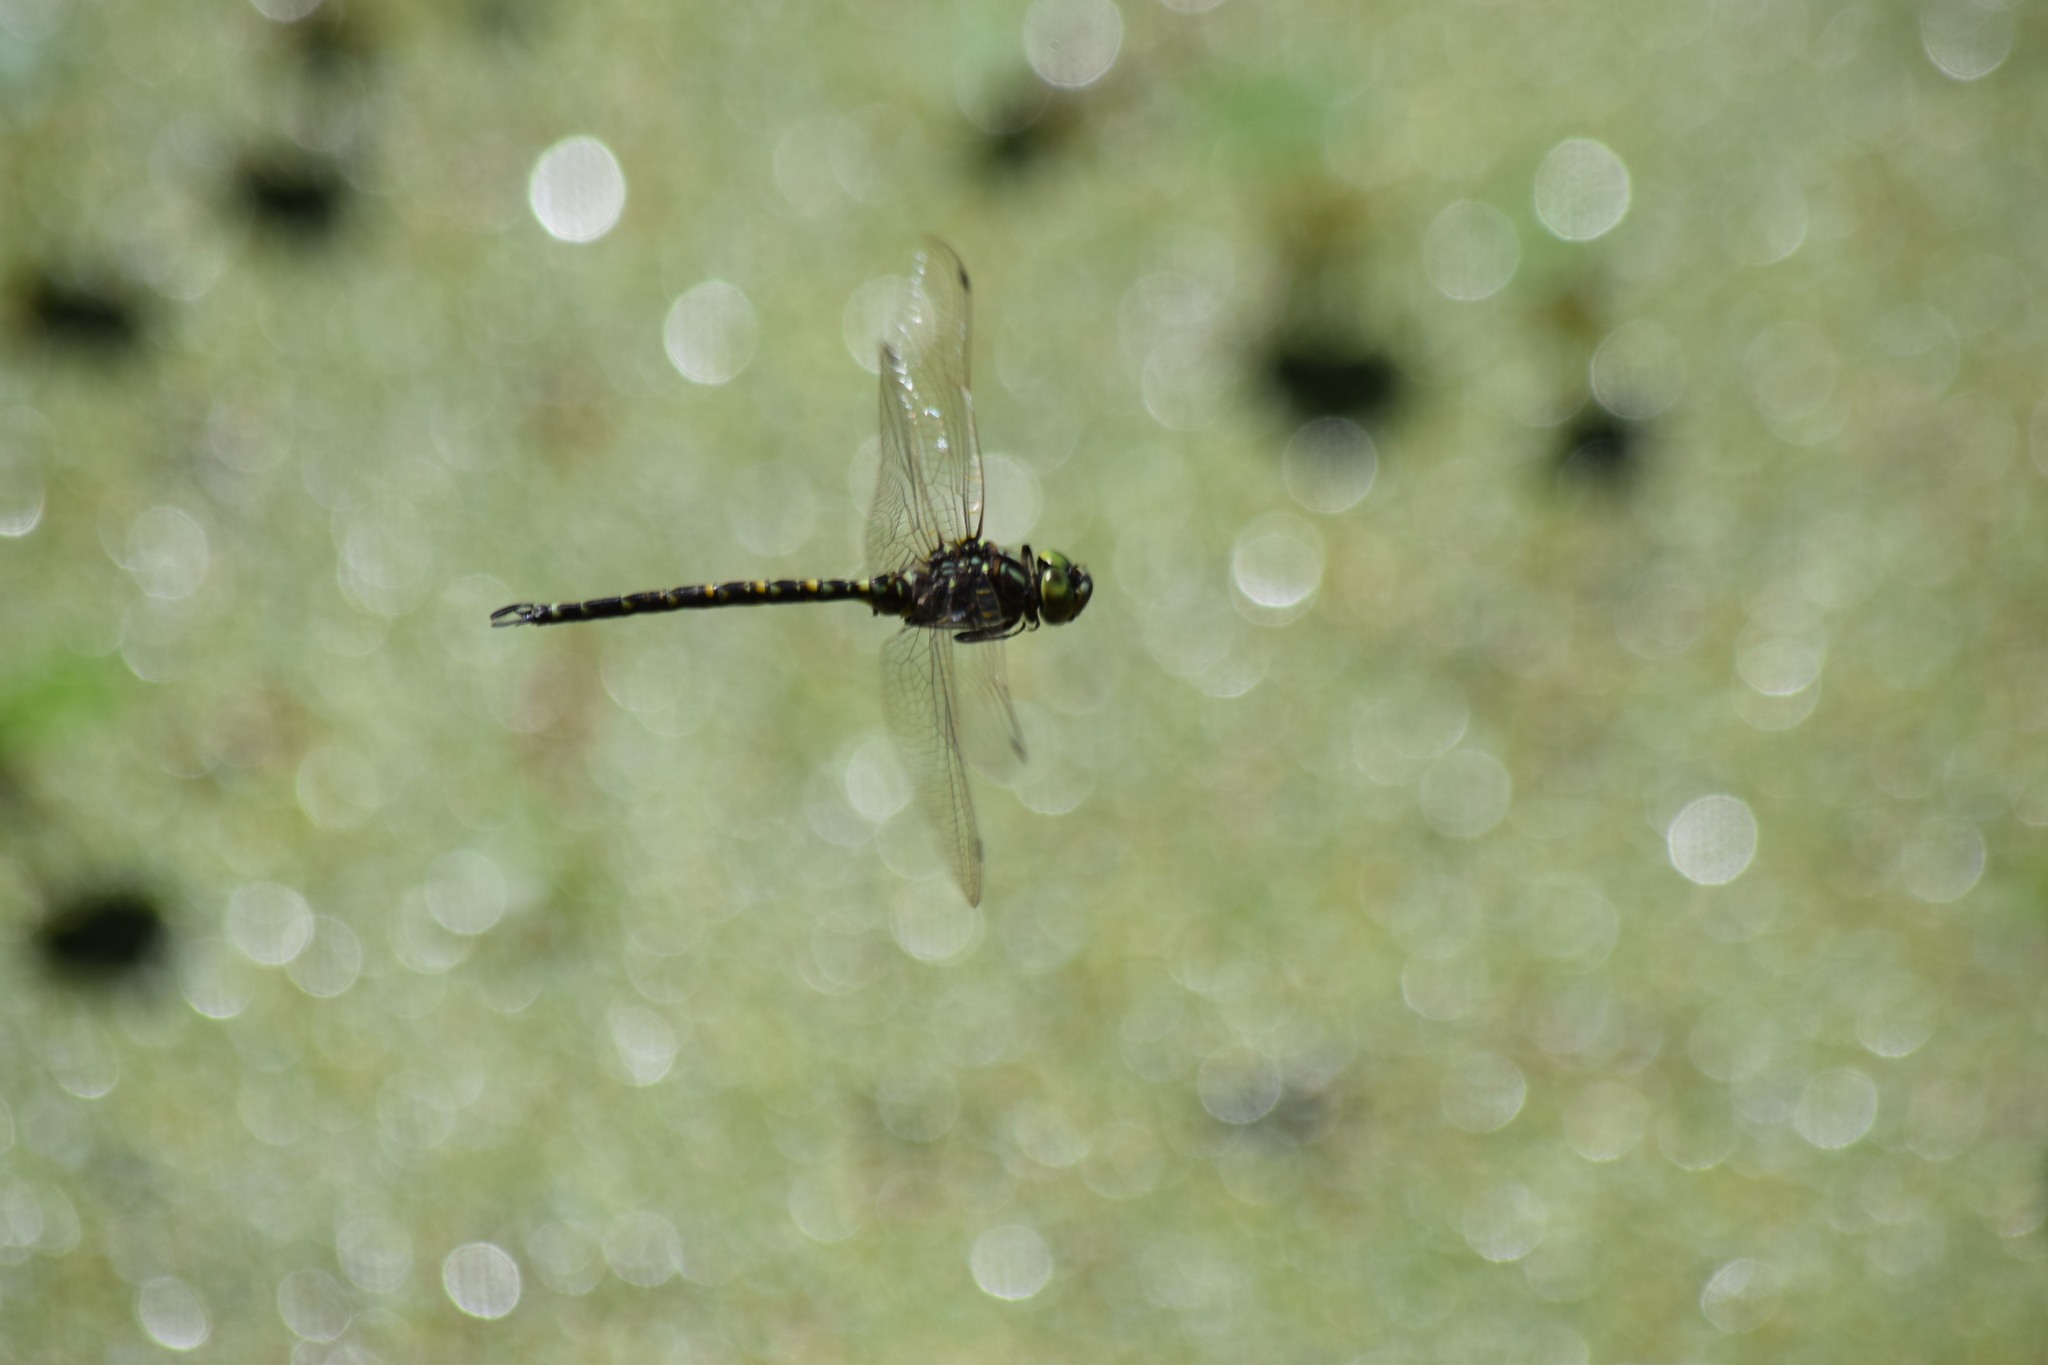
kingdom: Animalia
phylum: Arthropoda
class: Insecta
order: Odonata
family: Aeshnidae
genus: Gomphaeschna
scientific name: Gomphaeschna furcillata
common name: Harlequin darner
